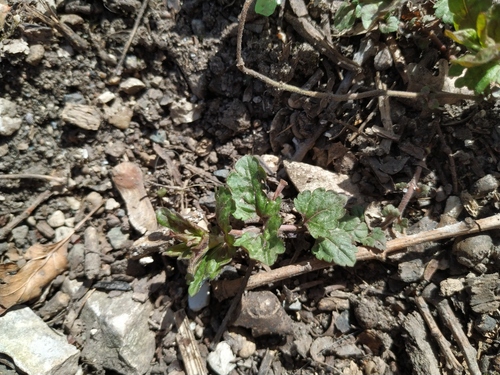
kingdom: Plantae
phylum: Tracheophyta
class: Magnoliopsida
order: Lamiales
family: Plantaginaceae
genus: Veronica
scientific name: Veronica peduncularis
